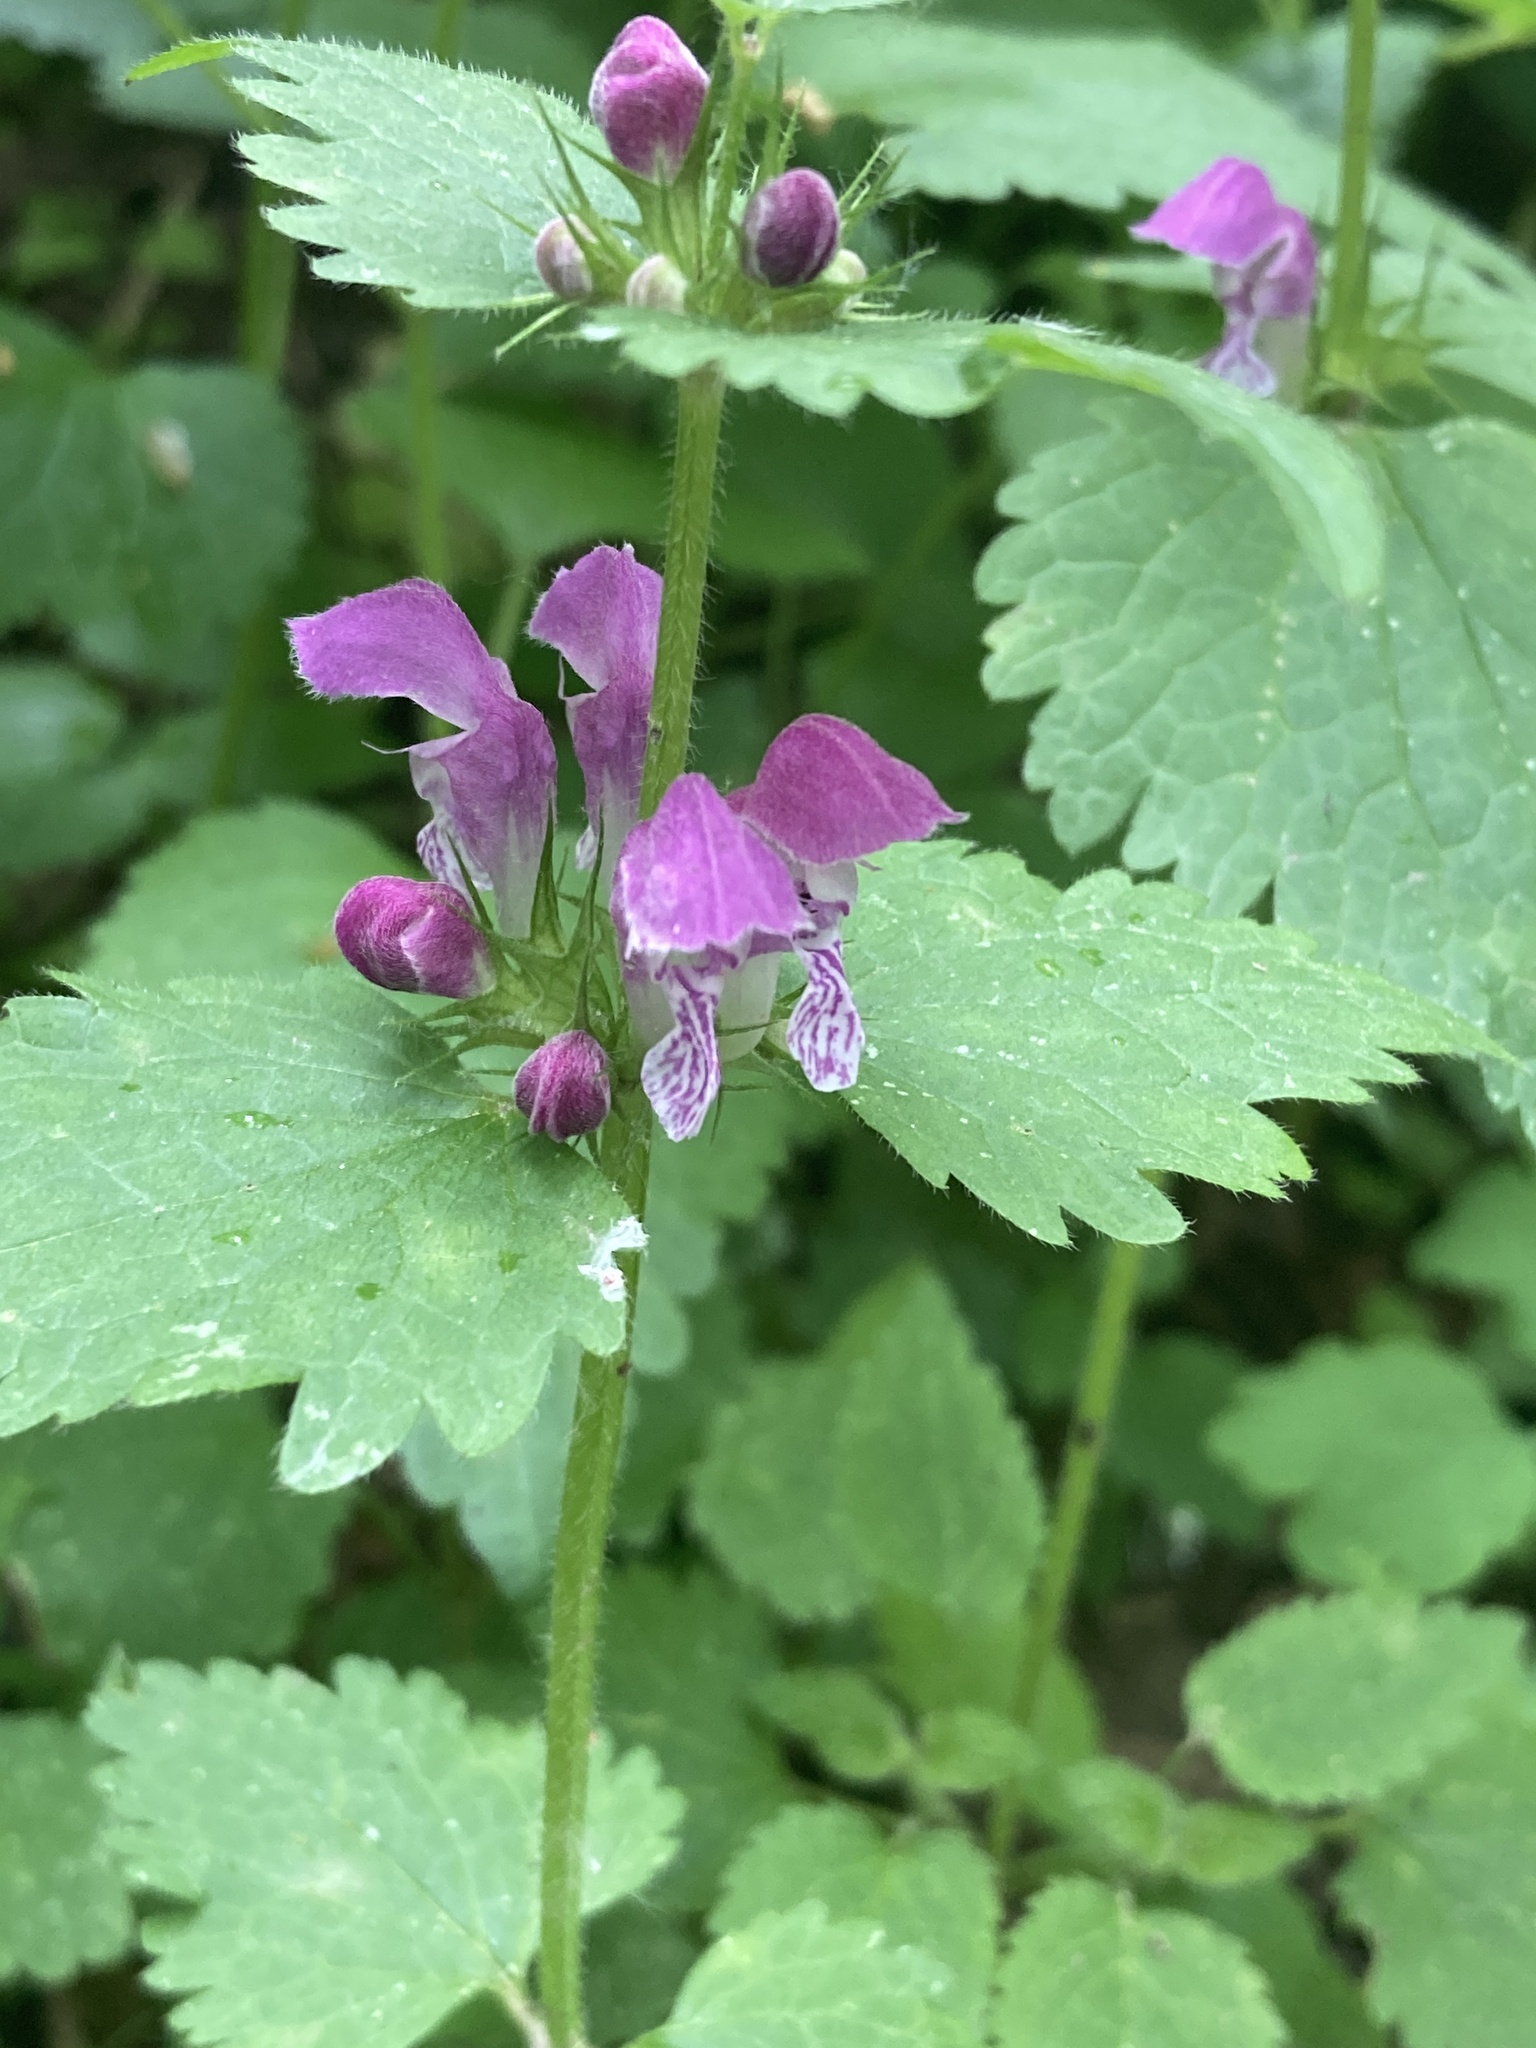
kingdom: Plantae
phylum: Tracheophyta
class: Magnoliopsida
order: Lamiales
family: Lamiaceae
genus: Lamium
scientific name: Lamium maculatum
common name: Spotted dead-nettle
